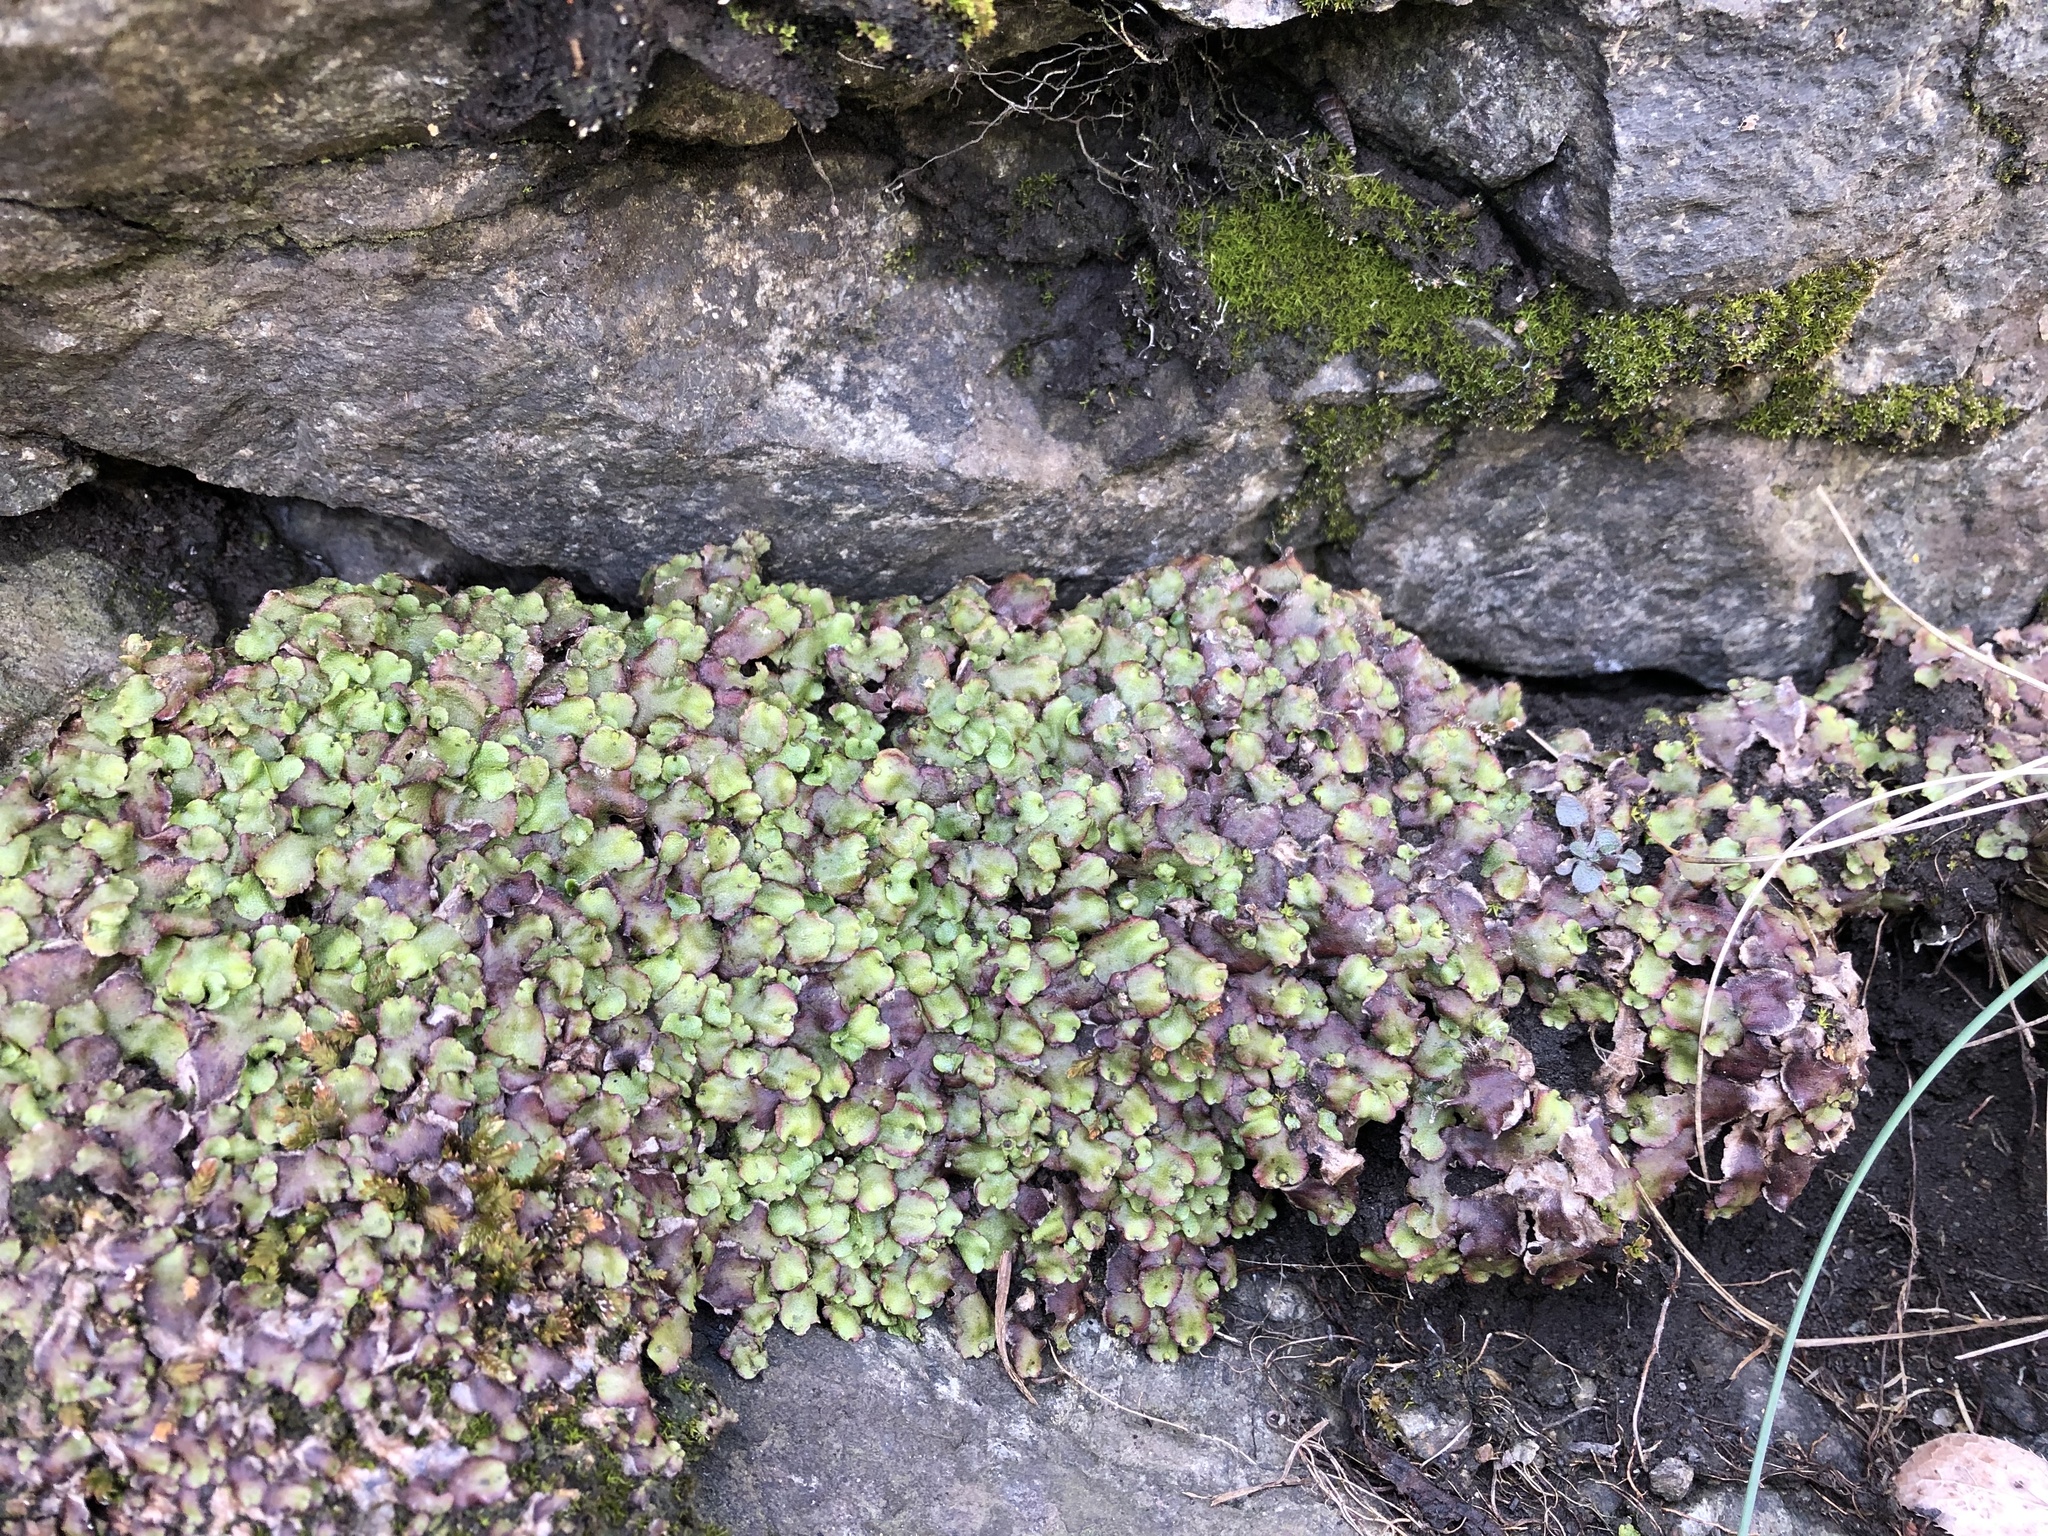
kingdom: Plantae
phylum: Marchantiophyta
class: Marchantiopsida
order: Marchantiales
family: Marchantiaceae
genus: Marchantia
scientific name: Marchantia quadrata
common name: Narrow mushroom-headed liverwort
